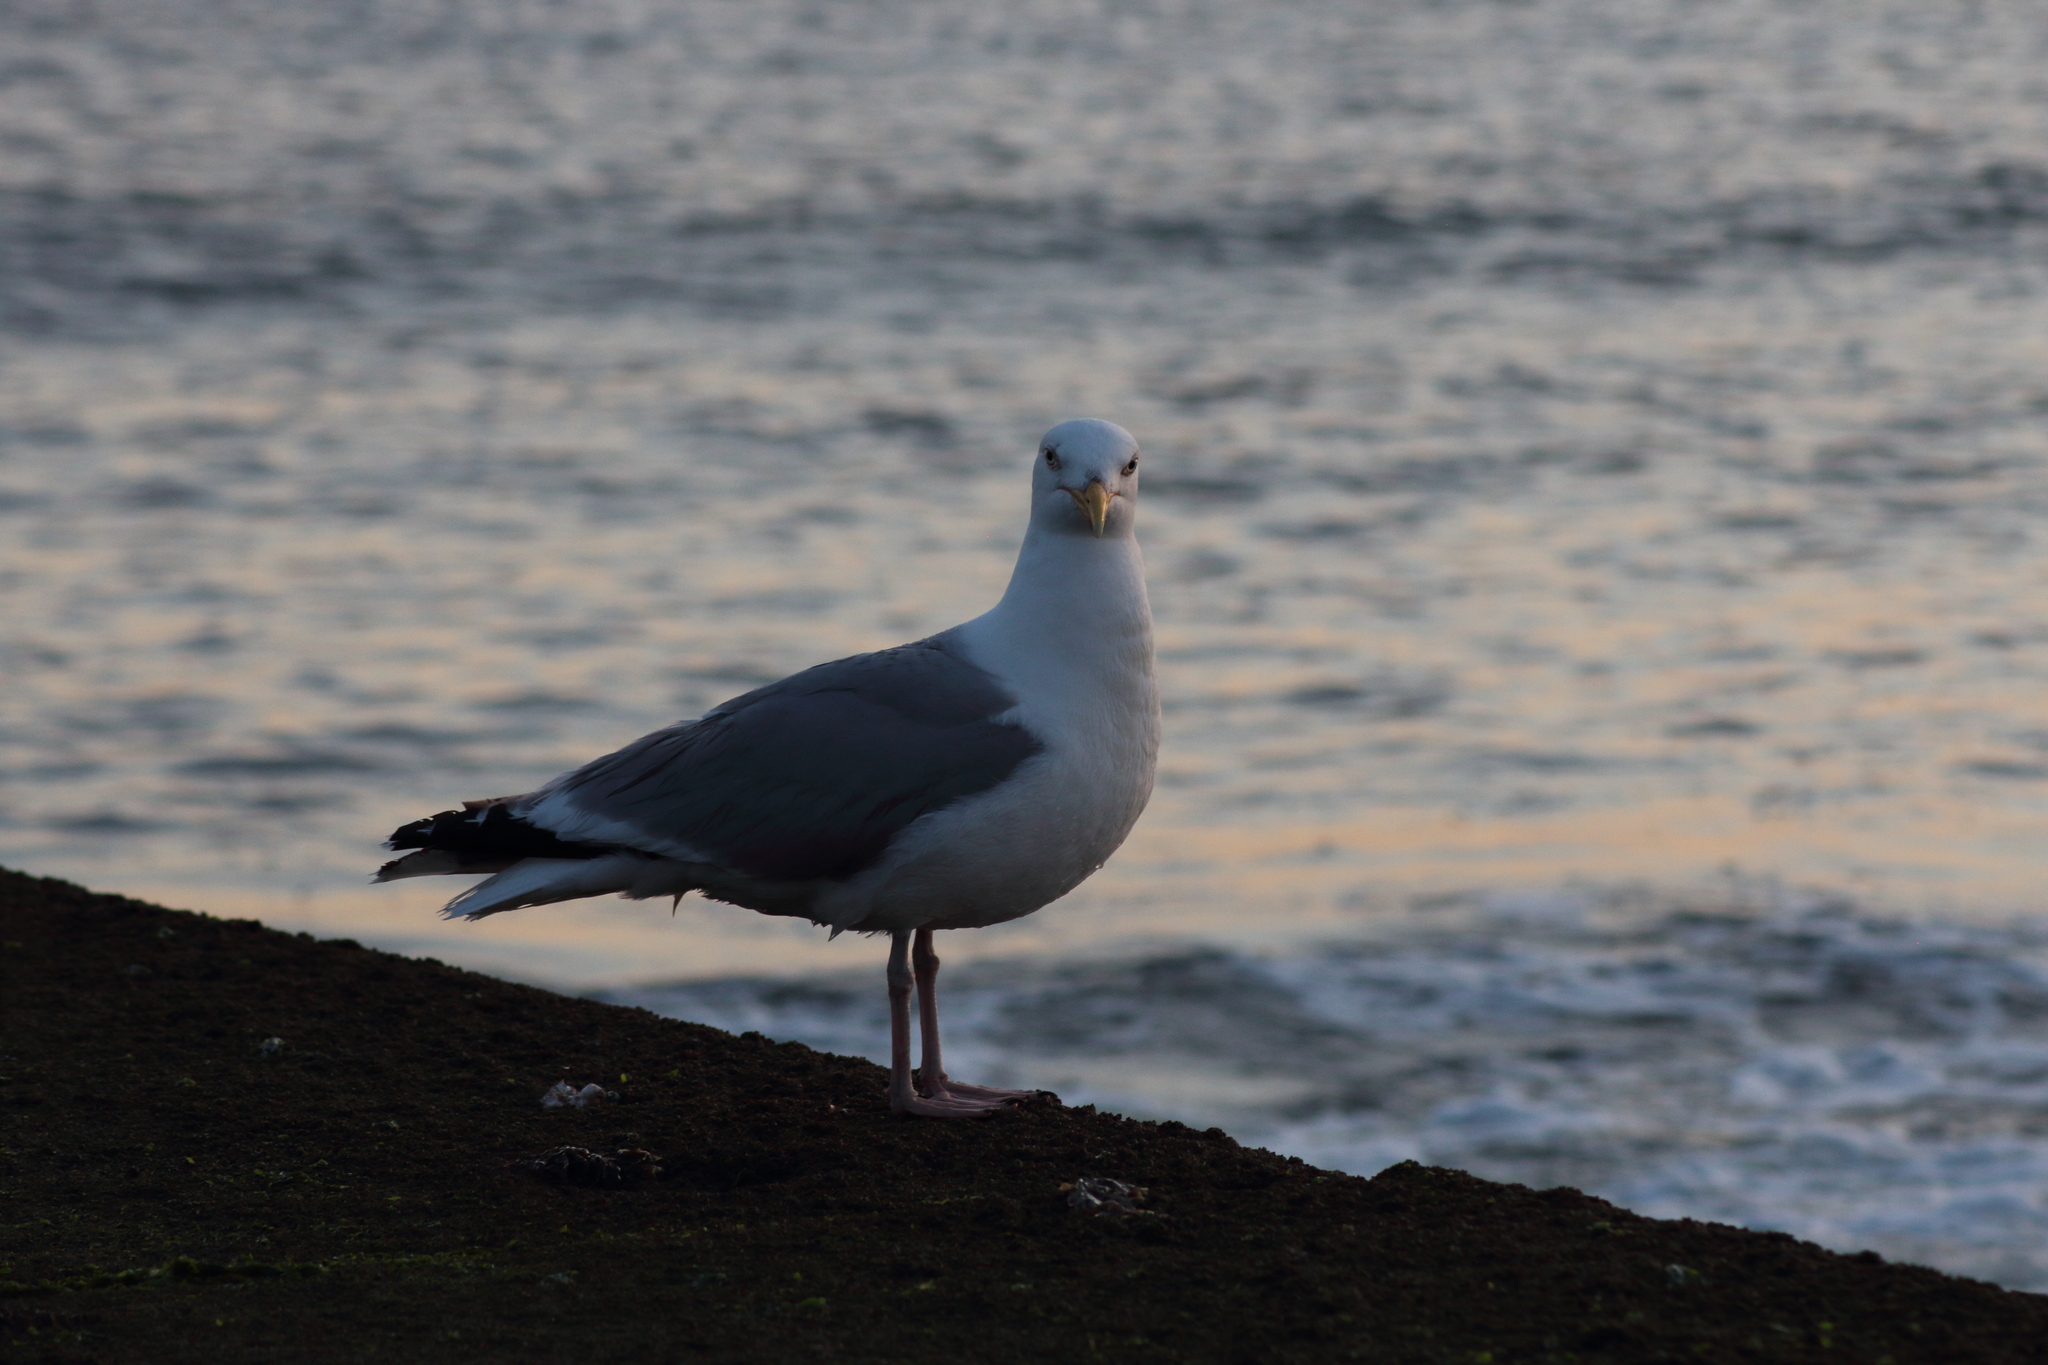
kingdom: Animalia
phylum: Chordata
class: Aves
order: Charadriiformes
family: Laridae
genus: Larus
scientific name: Larus argentatus
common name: Herring gull
